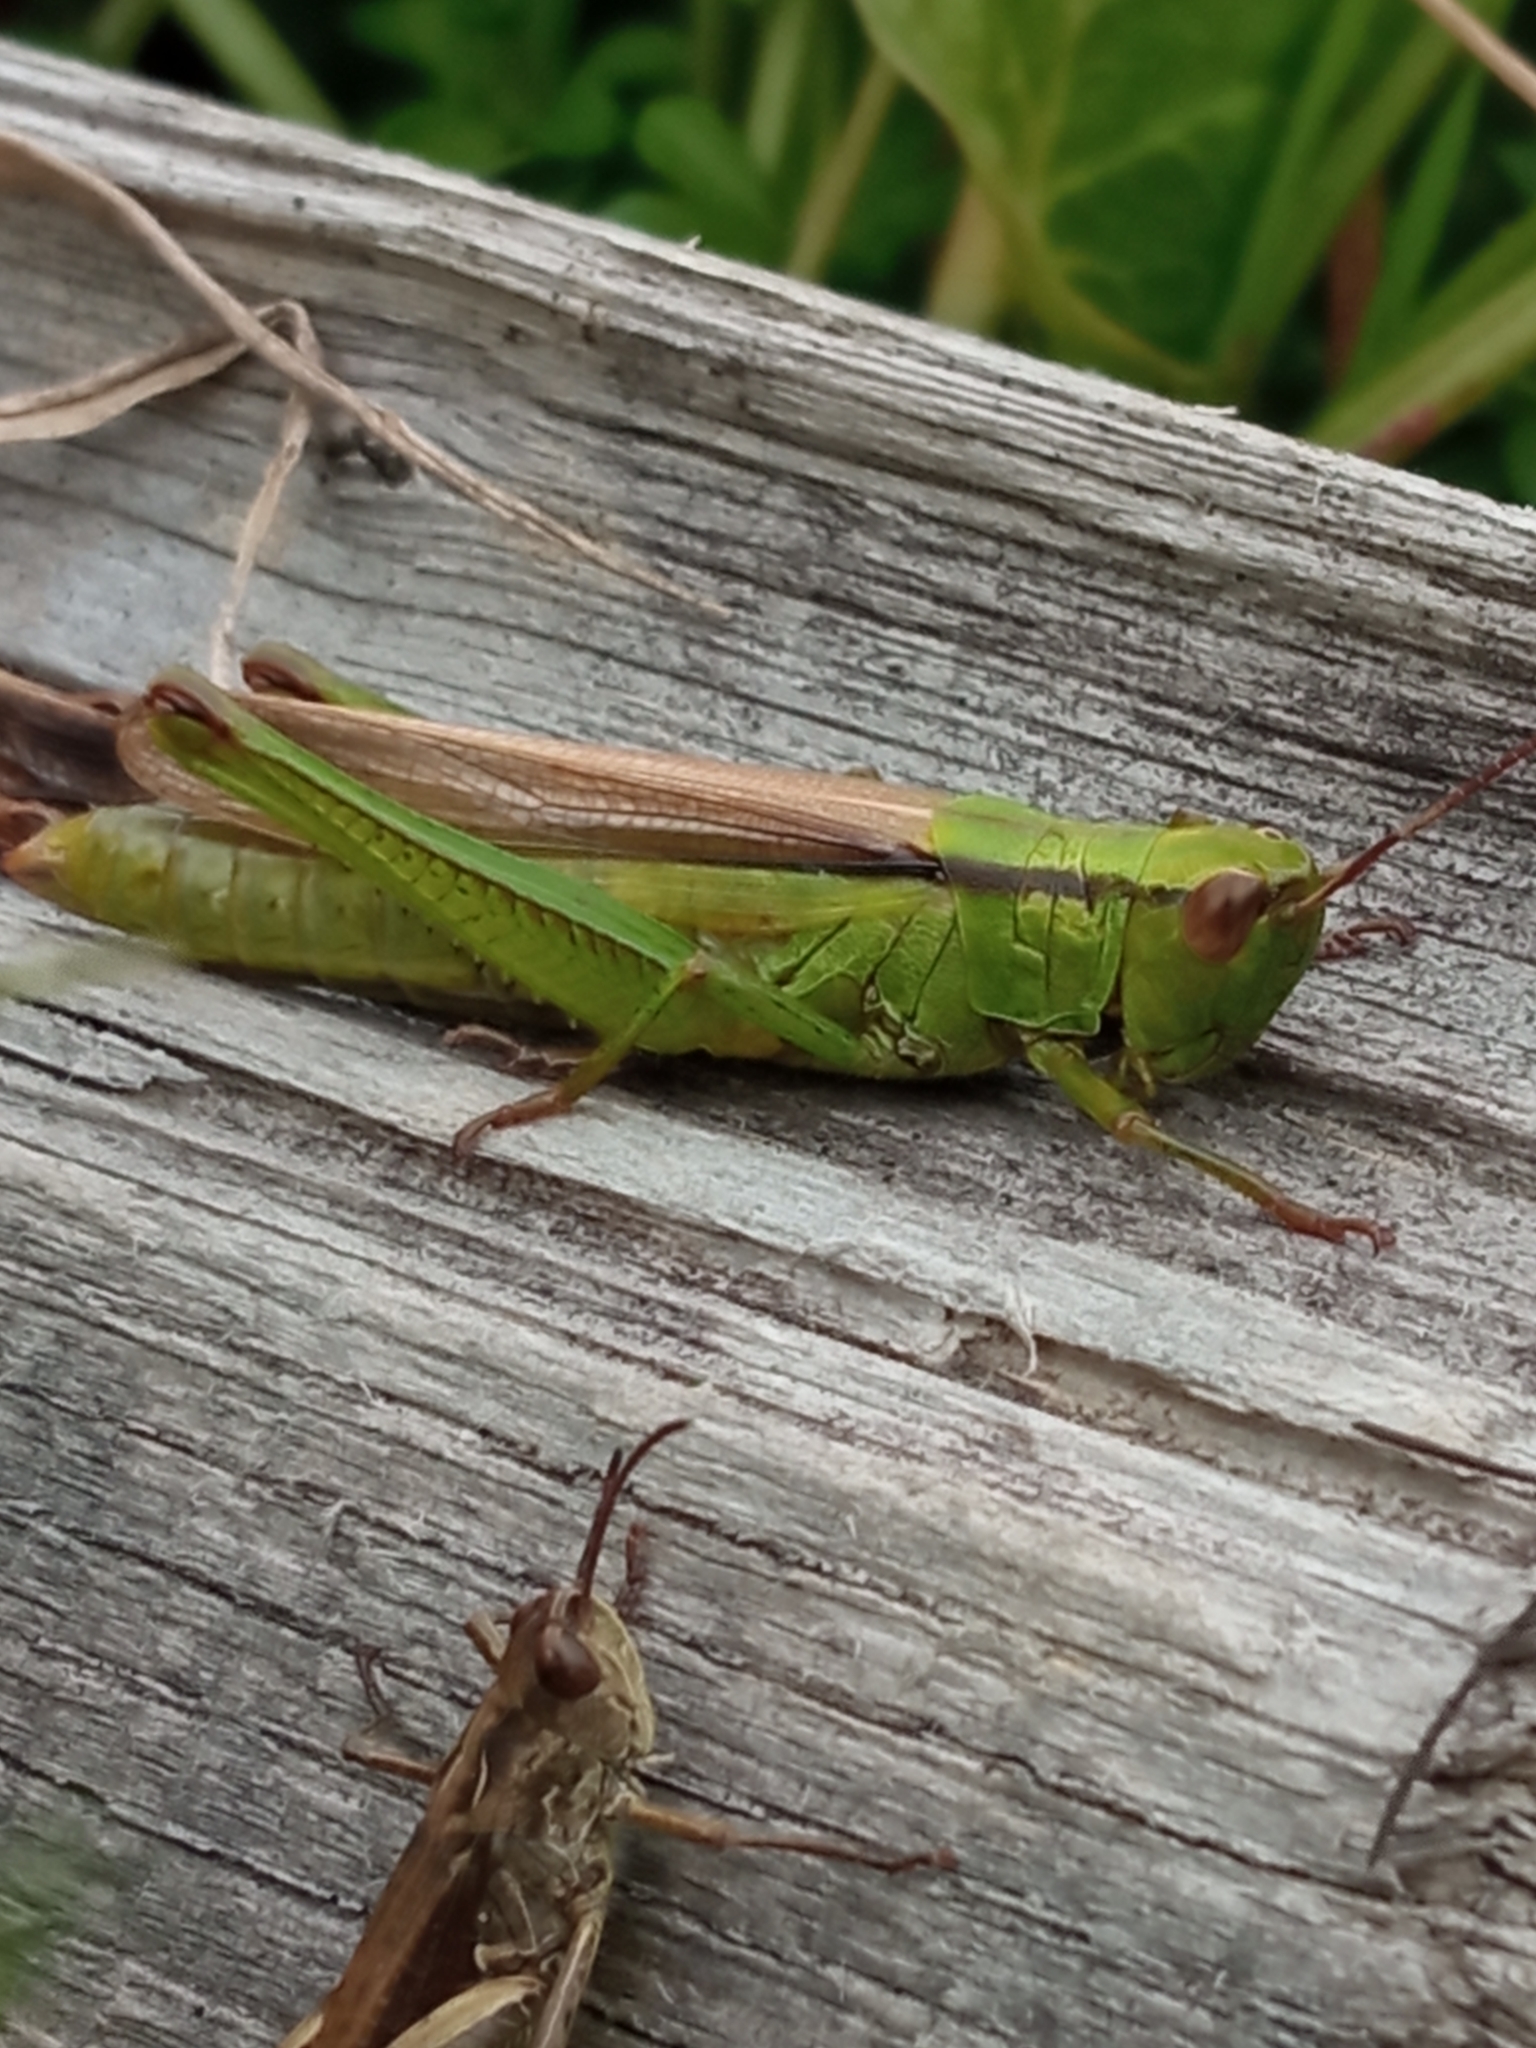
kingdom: Animalia
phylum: Arthropoda
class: Insecta
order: Orthoptera
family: Acrididae
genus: Mecostethus
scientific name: Mecostethus parapleurus
